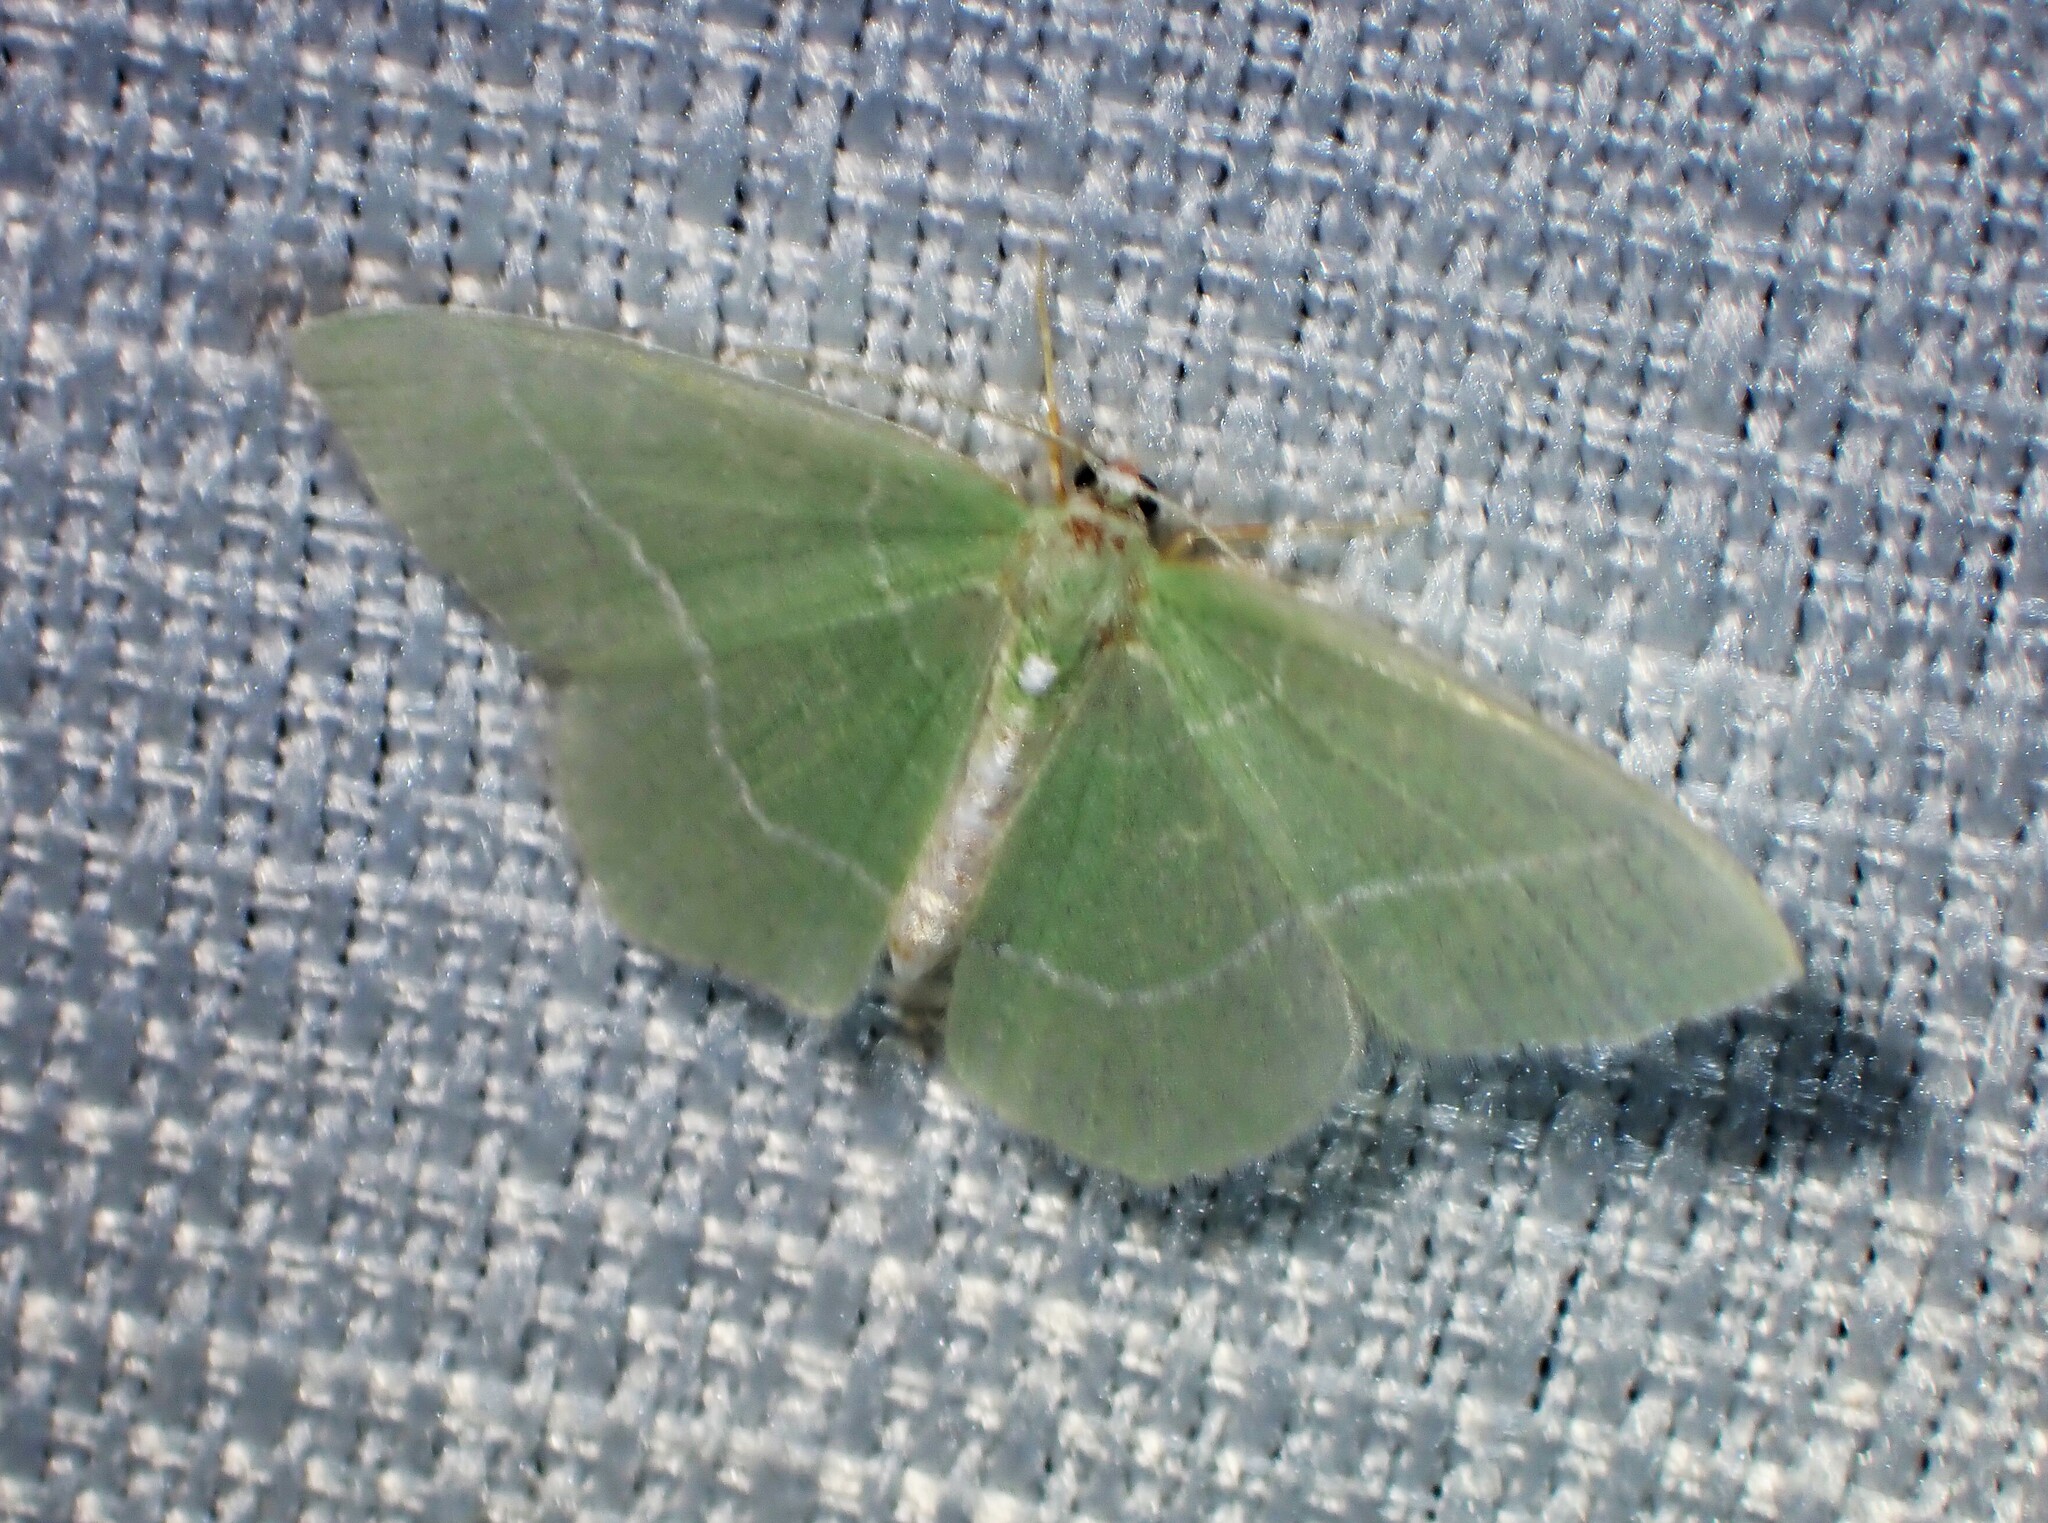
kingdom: Animalia
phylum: Arthropoda
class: Insecta
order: Lepidoptera
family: Geometridae
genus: Nemoria
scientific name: Nemoria mimosaria
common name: White-fringed emerald
